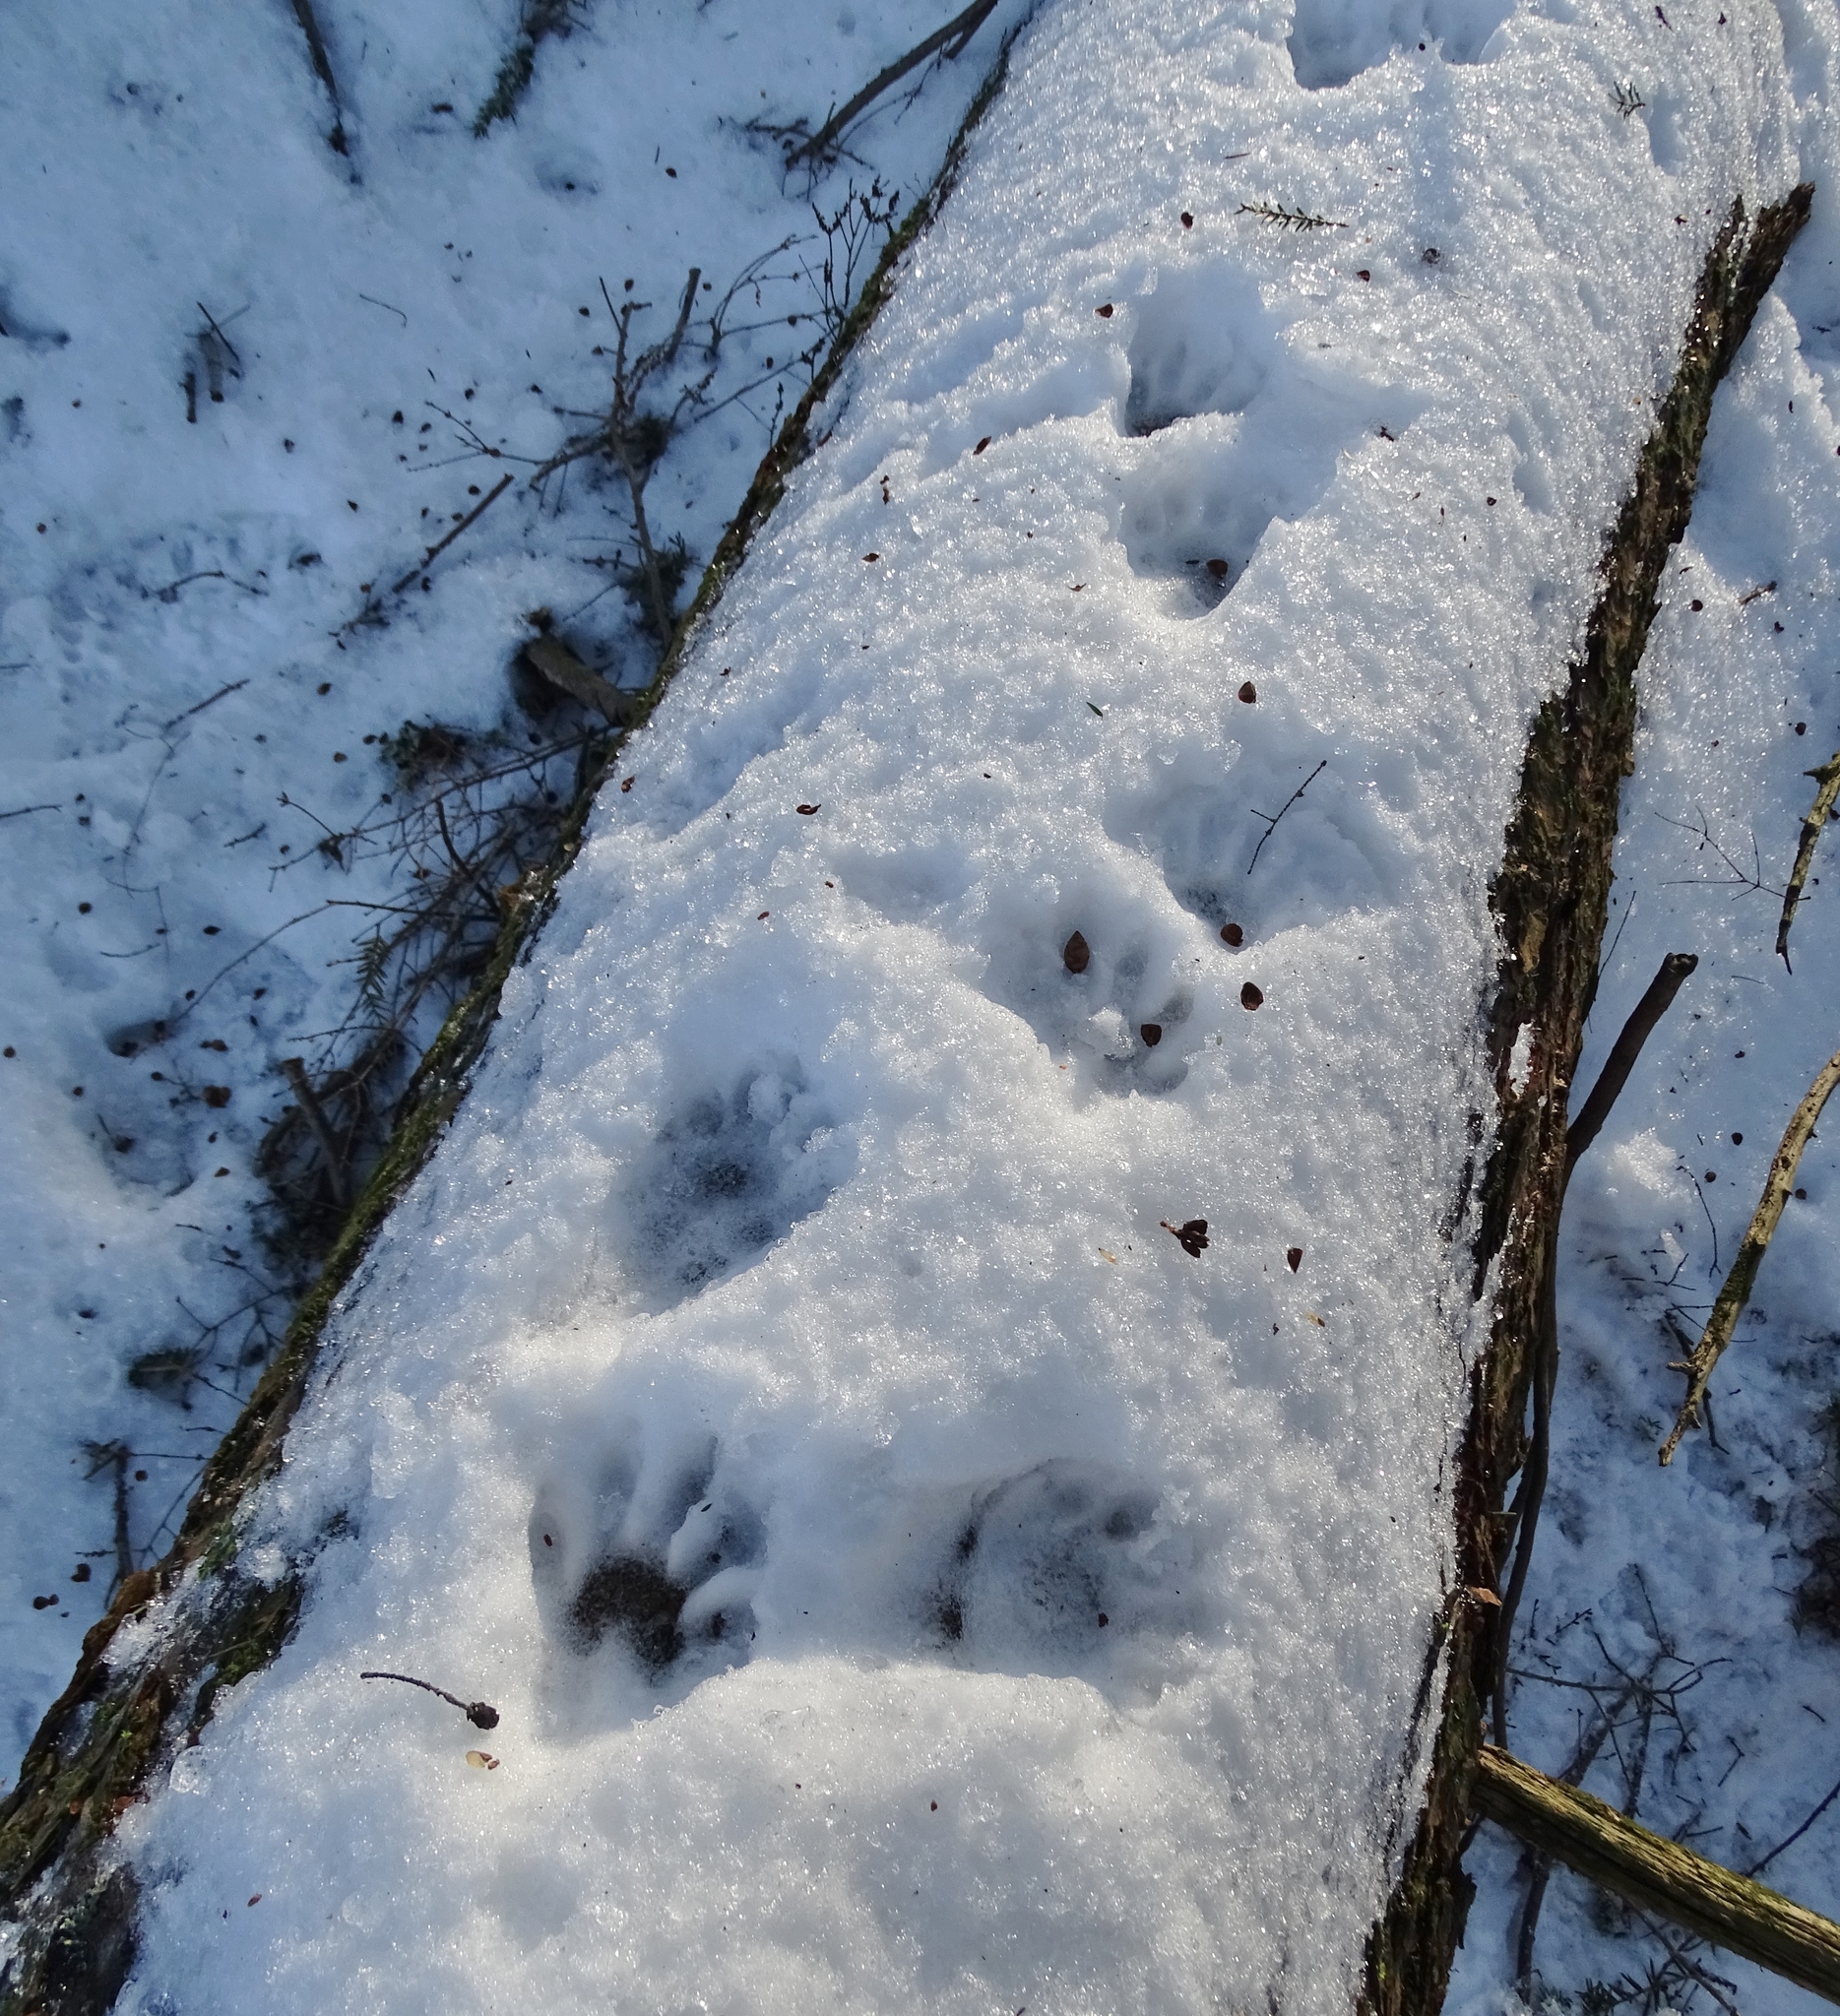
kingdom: Animalia
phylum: Chordata
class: Mammalia
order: Carnivora
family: Procyonidae
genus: Procyon
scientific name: Procyon lotor
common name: Raccoon
